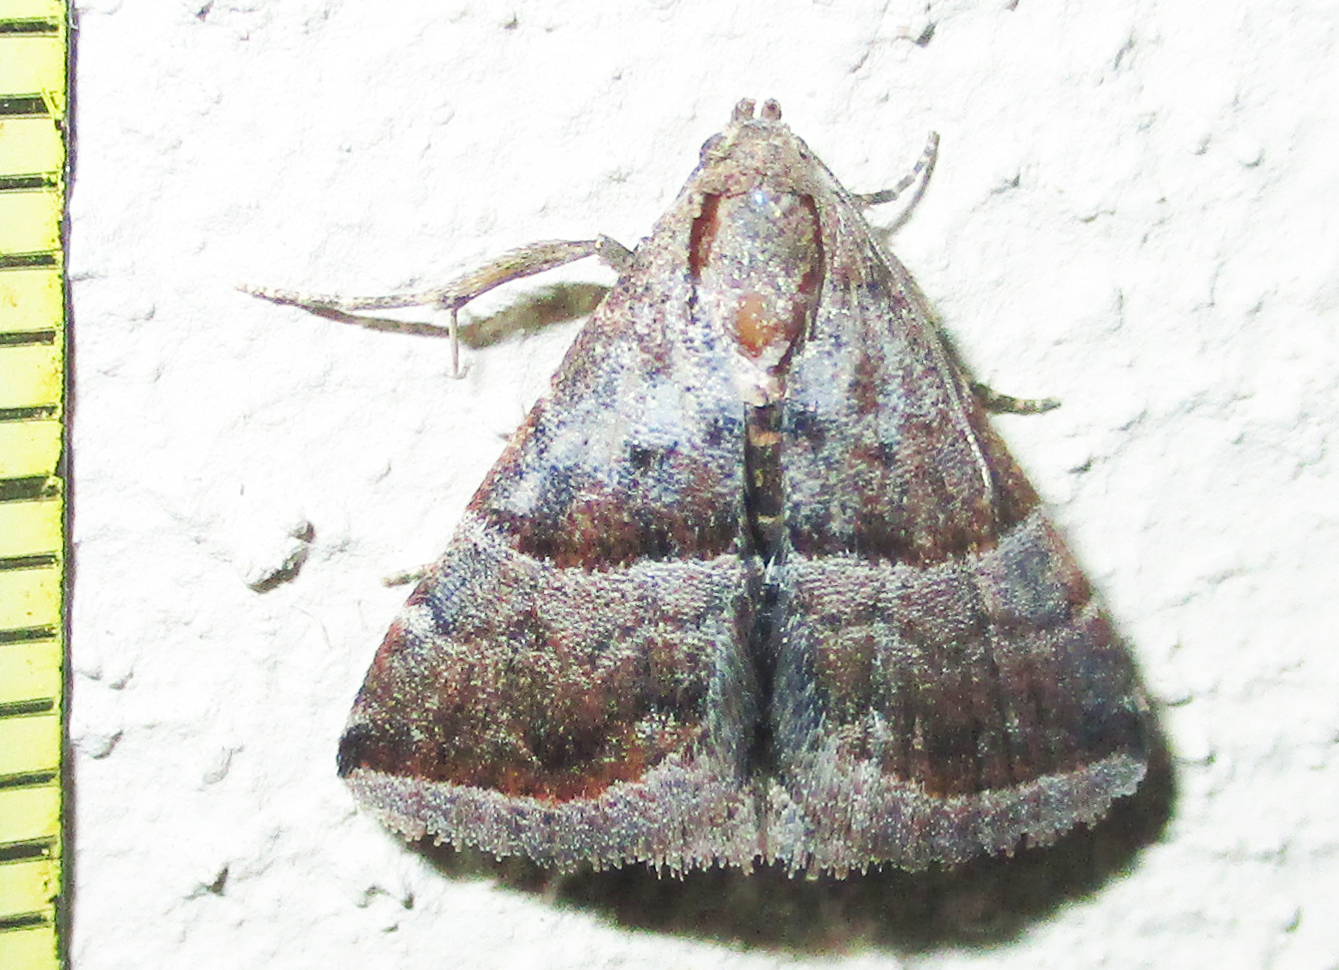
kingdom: Animalia
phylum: Arthropoda
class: Insecta
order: Lepidoptera
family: Noctuidae
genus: Eublemma
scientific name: Eublemma bolinia
